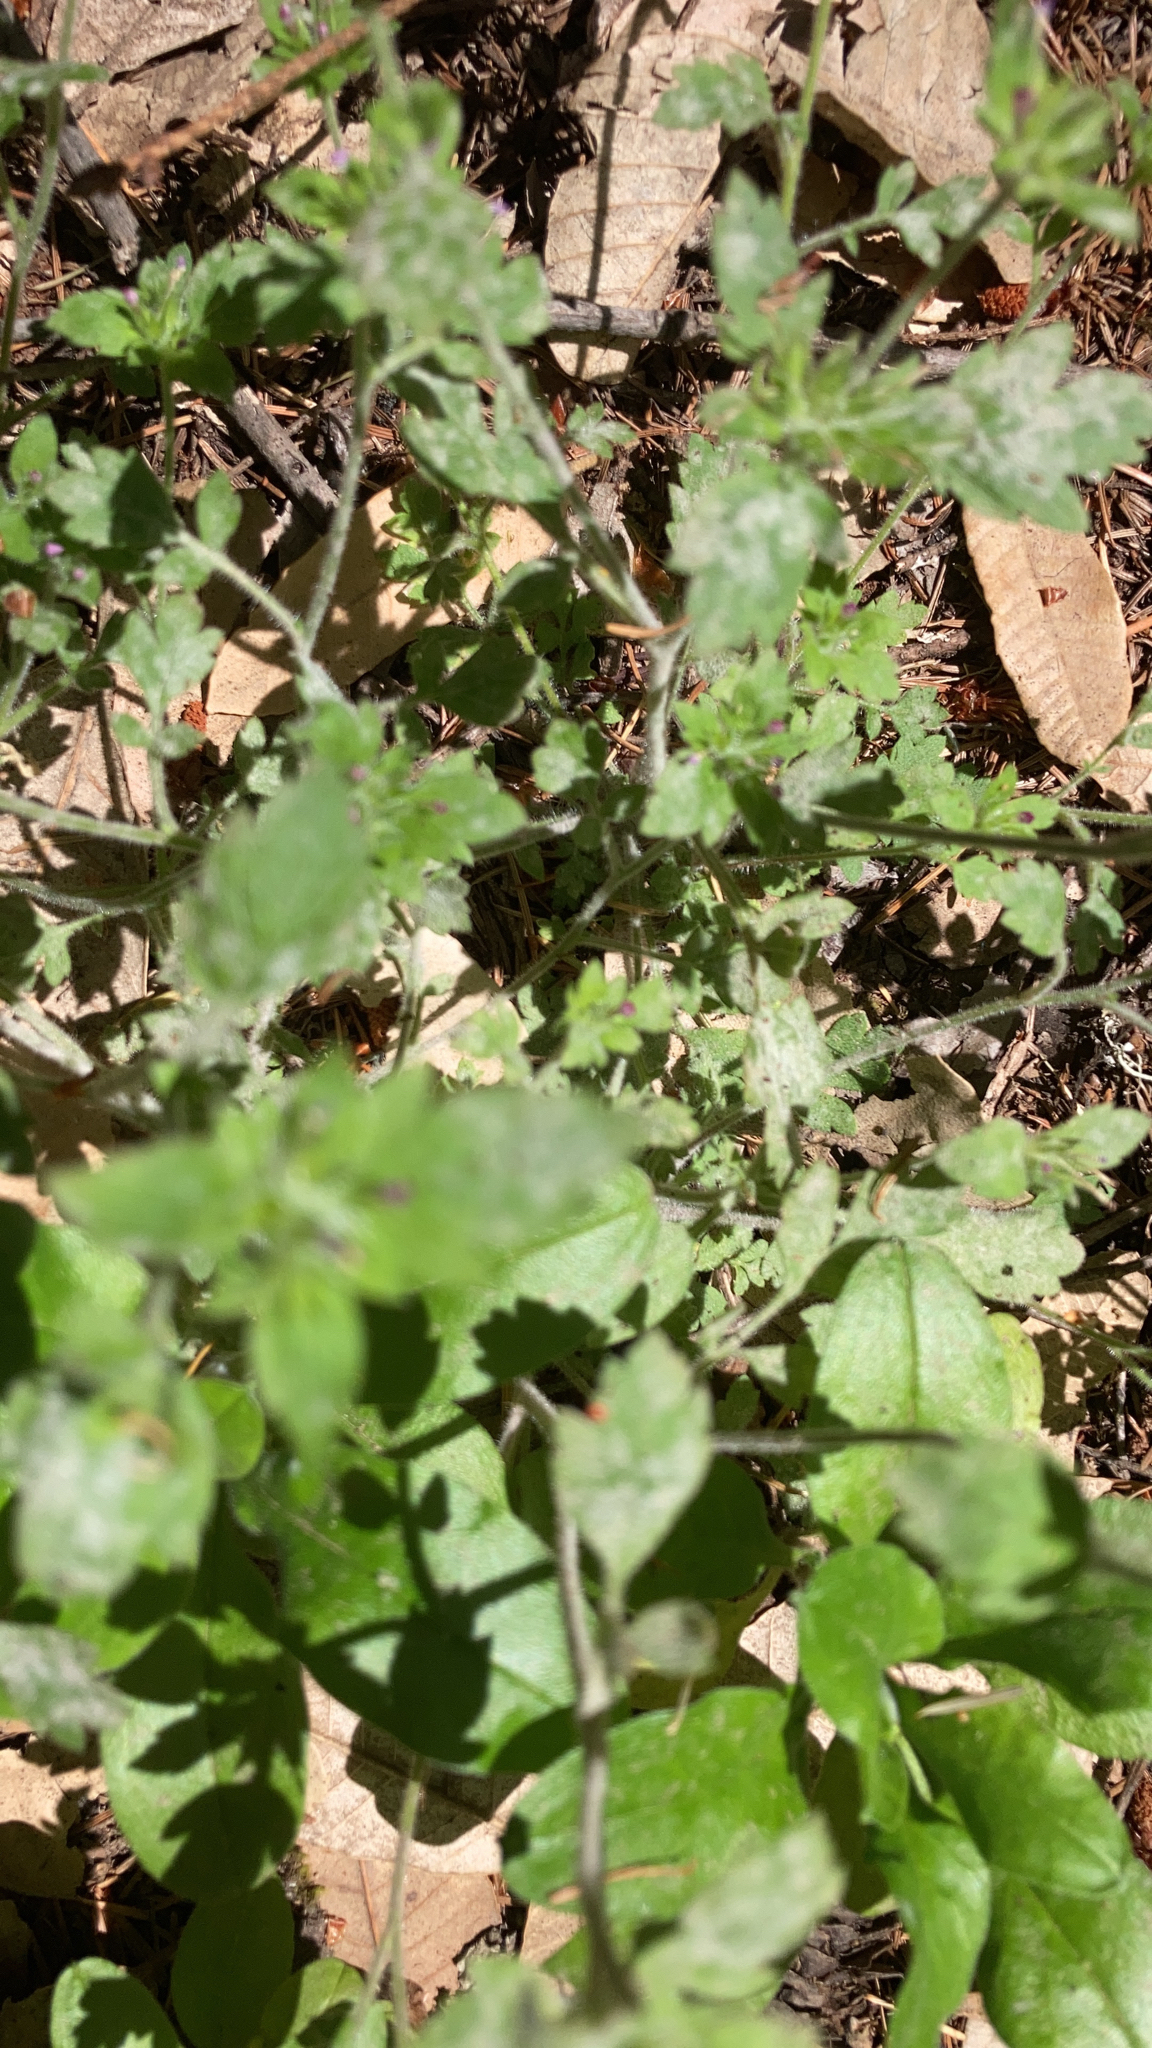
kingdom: Plantae
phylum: Tracheophyta
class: Magnoliopsida
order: Ericales
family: Polemoniaceae
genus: Collomia
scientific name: Collomia heterophylla
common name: Variable-leaved collomia
